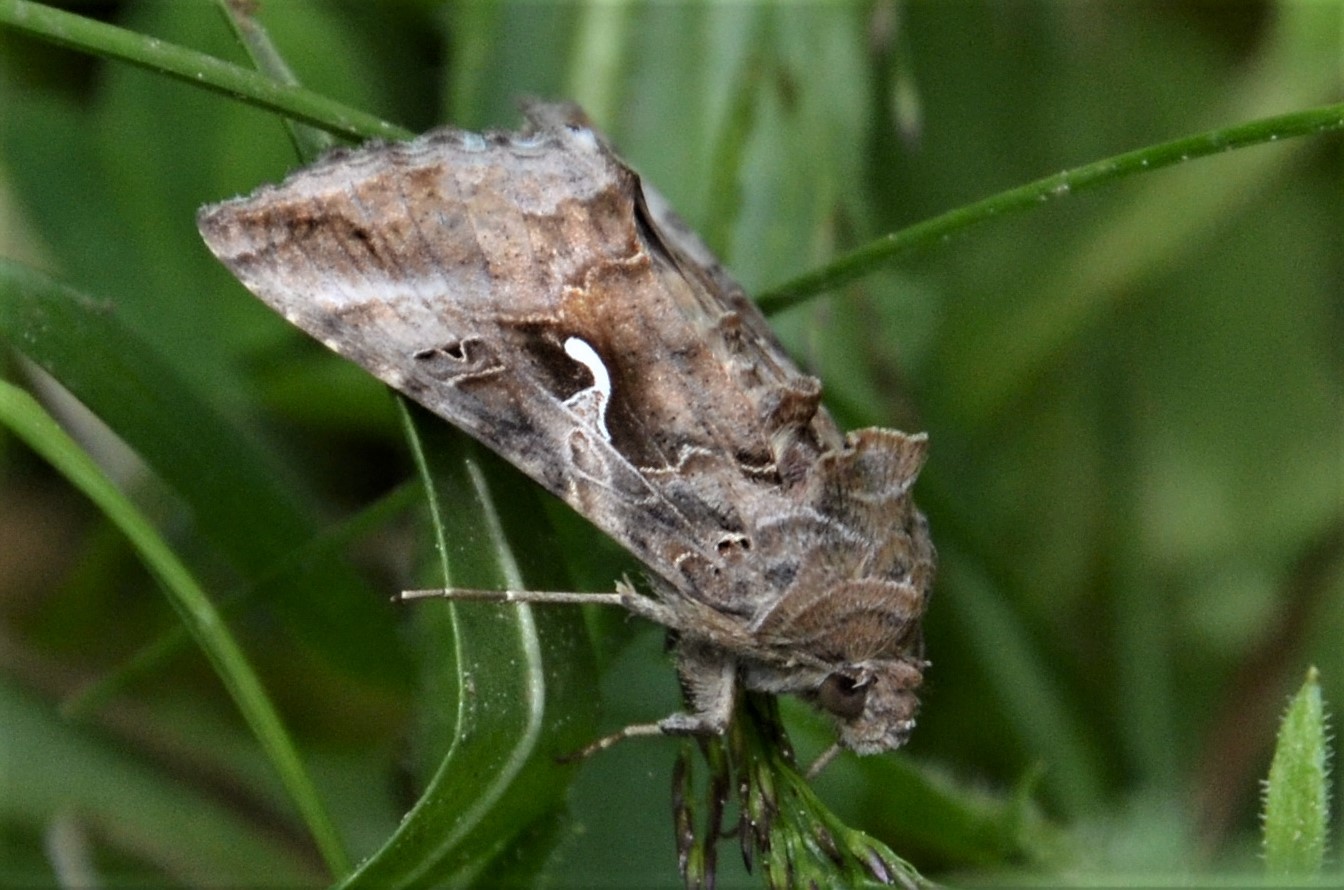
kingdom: Animalia
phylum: Arthropoda
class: Insecta
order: Lepidoptera
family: Noctuidae
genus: Autographa
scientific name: Autographa gamma
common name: Silver y
